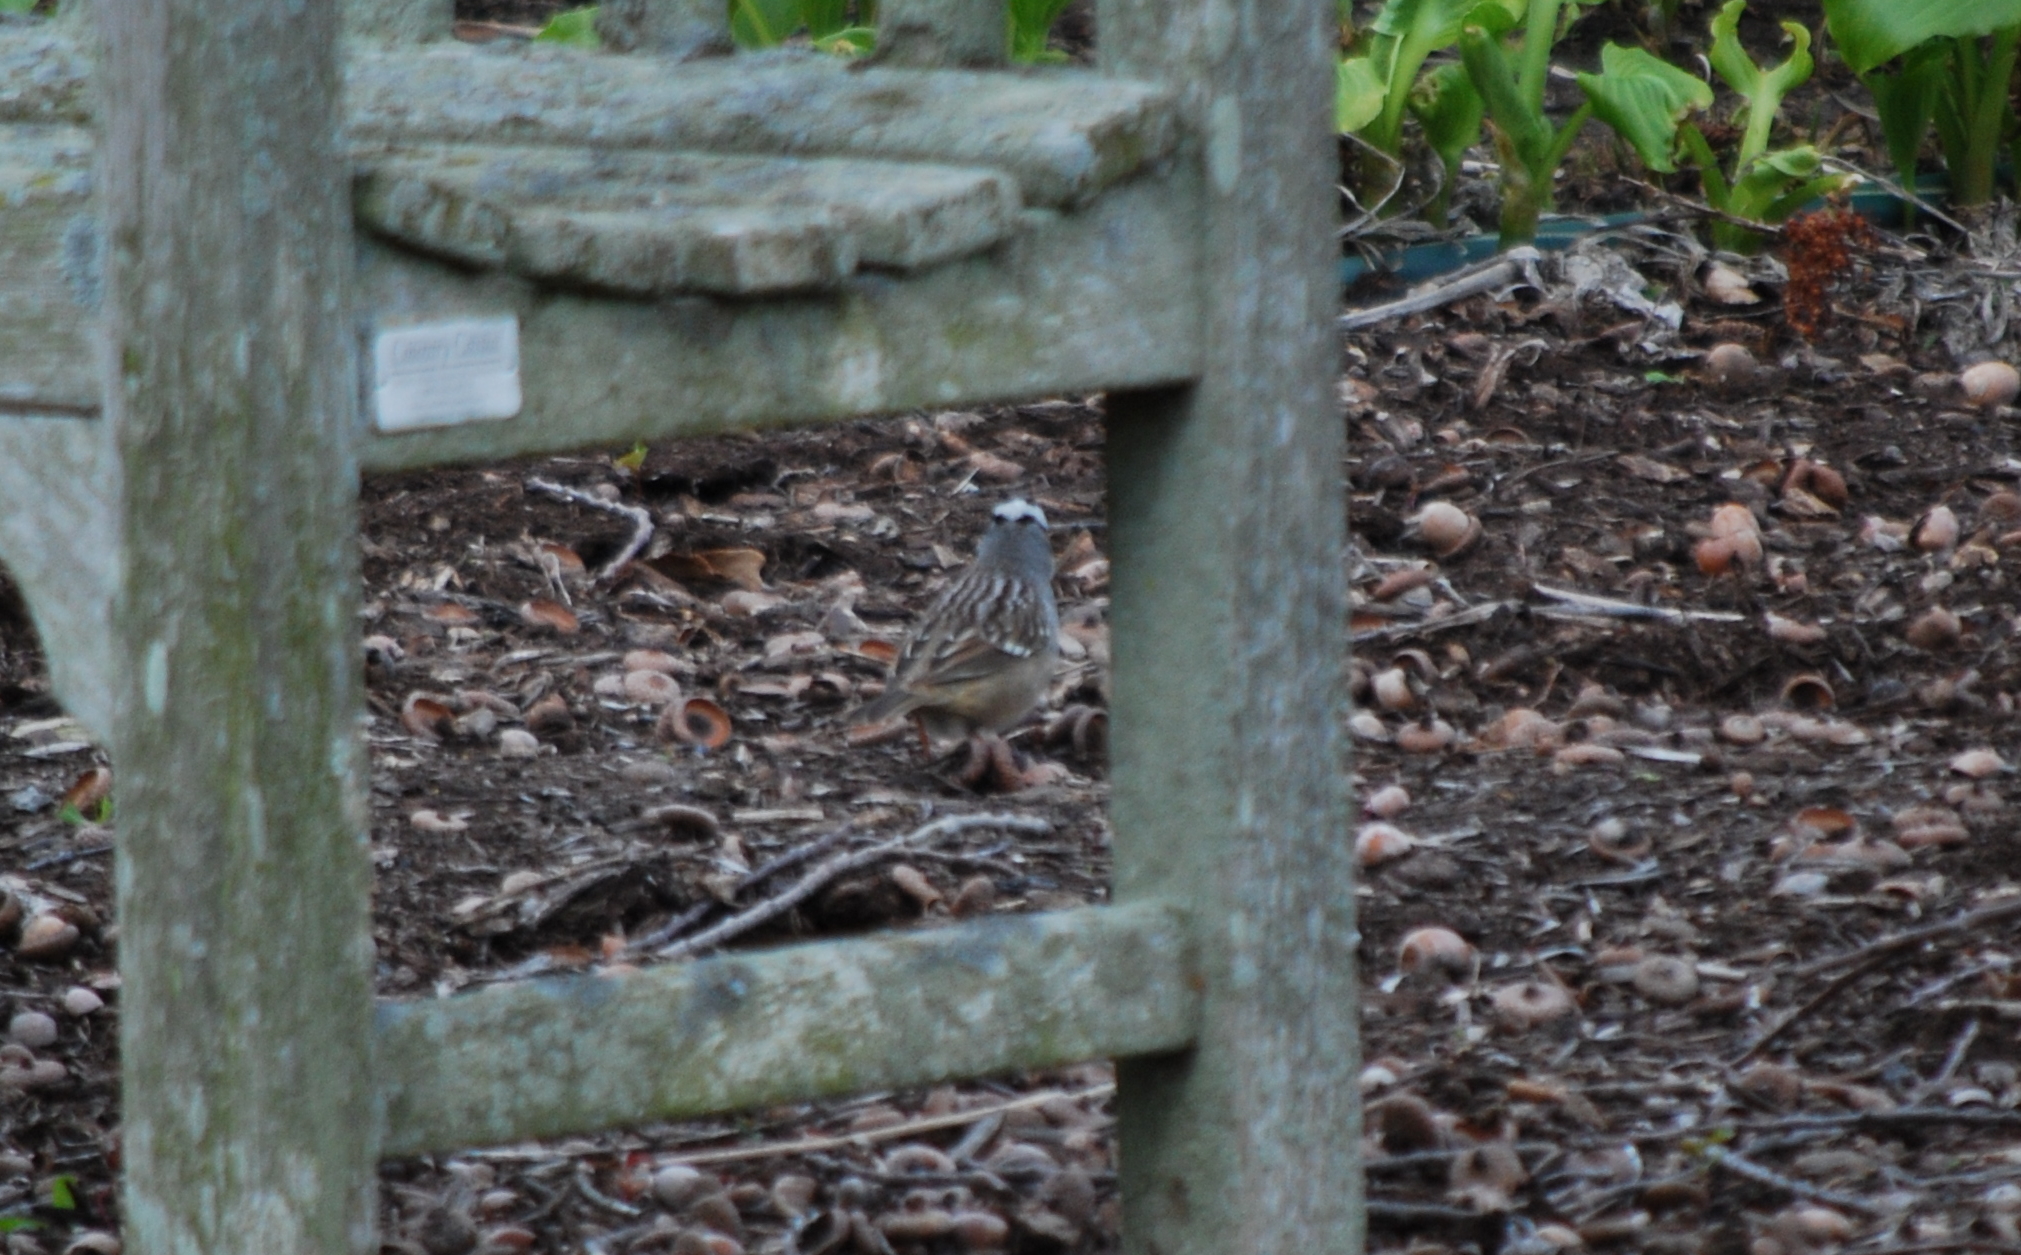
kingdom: Animalia
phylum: Chordata
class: Aves
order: Passeriformes
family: Passerellidae
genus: Zonotrichia
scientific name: Zonotrichia leucophrys
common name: White-crowned sparrow
